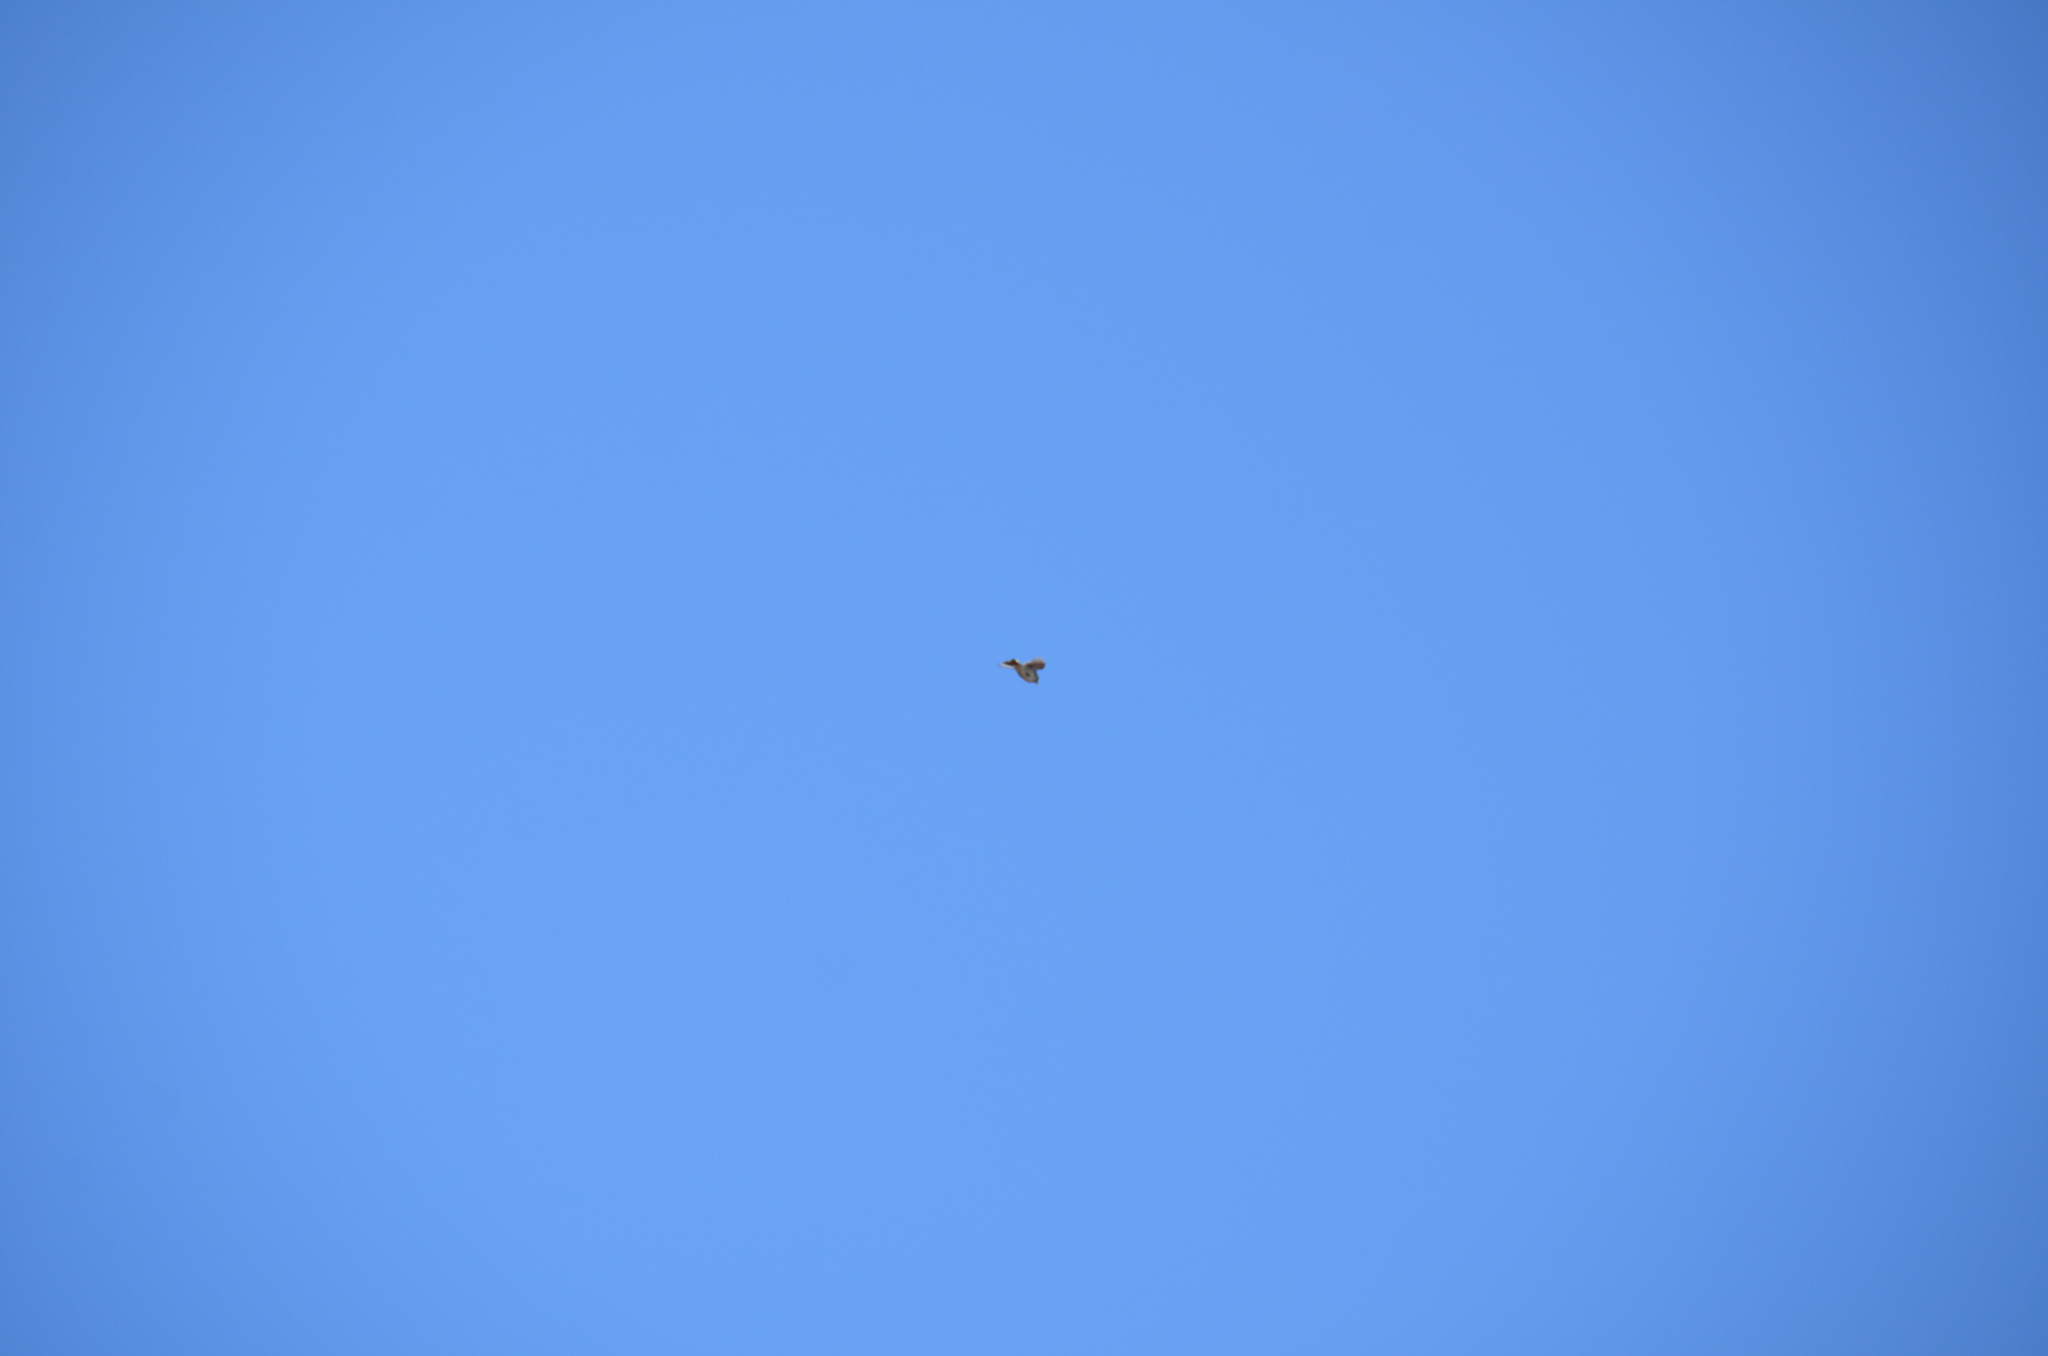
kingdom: Animalia
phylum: Chordata
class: Aves
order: Passeriformes
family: Alaudidae
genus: Alauda
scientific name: Alauda arvensis
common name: Eurasian skylark
